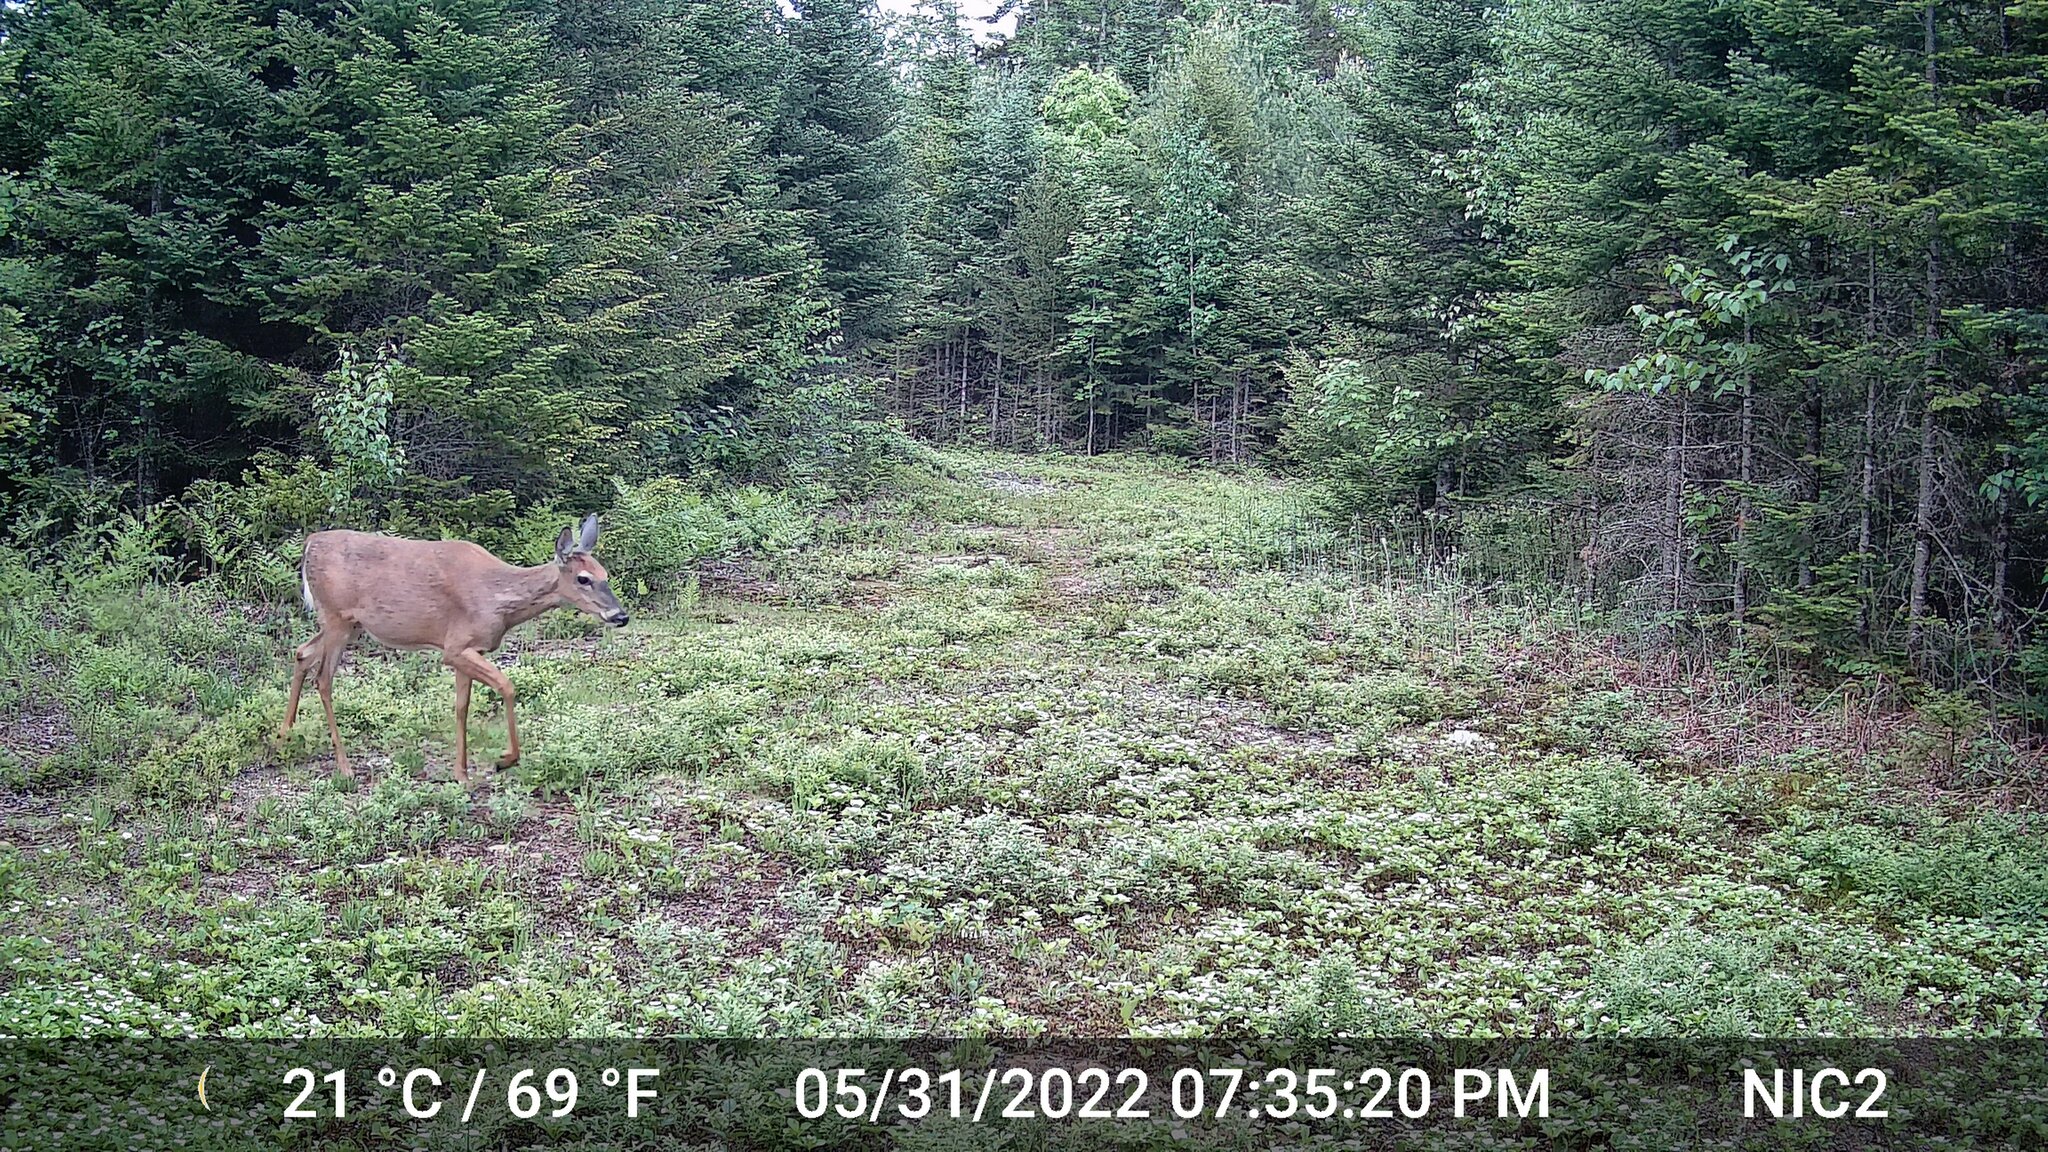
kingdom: Animalia
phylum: Chordata
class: Mammalia
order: Artiodactyla
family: Cervidae
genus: Odocoileus
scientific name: Odocoileus virginianus
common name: White-tailed deer
